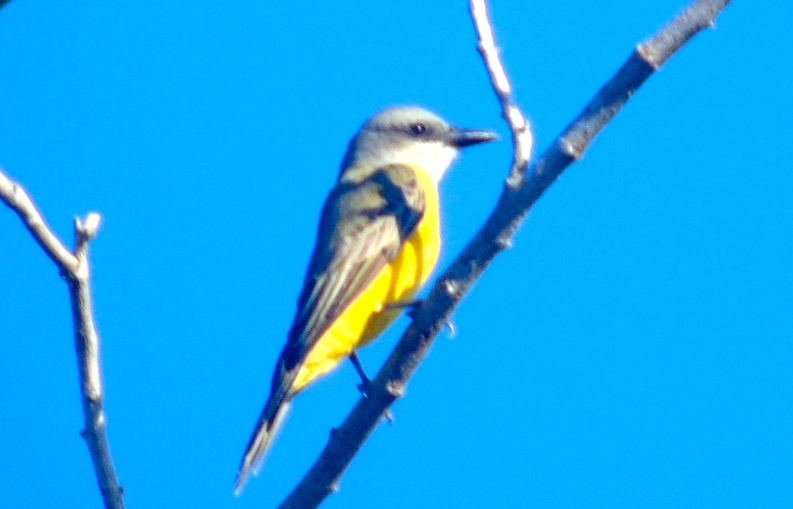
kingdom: Animalia
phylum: Chordata
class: Aves
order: Passeriformes
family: Tyrannidae
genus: Tyrannus
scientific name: Tyrannus melancholicus
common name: Tropical kingbird
